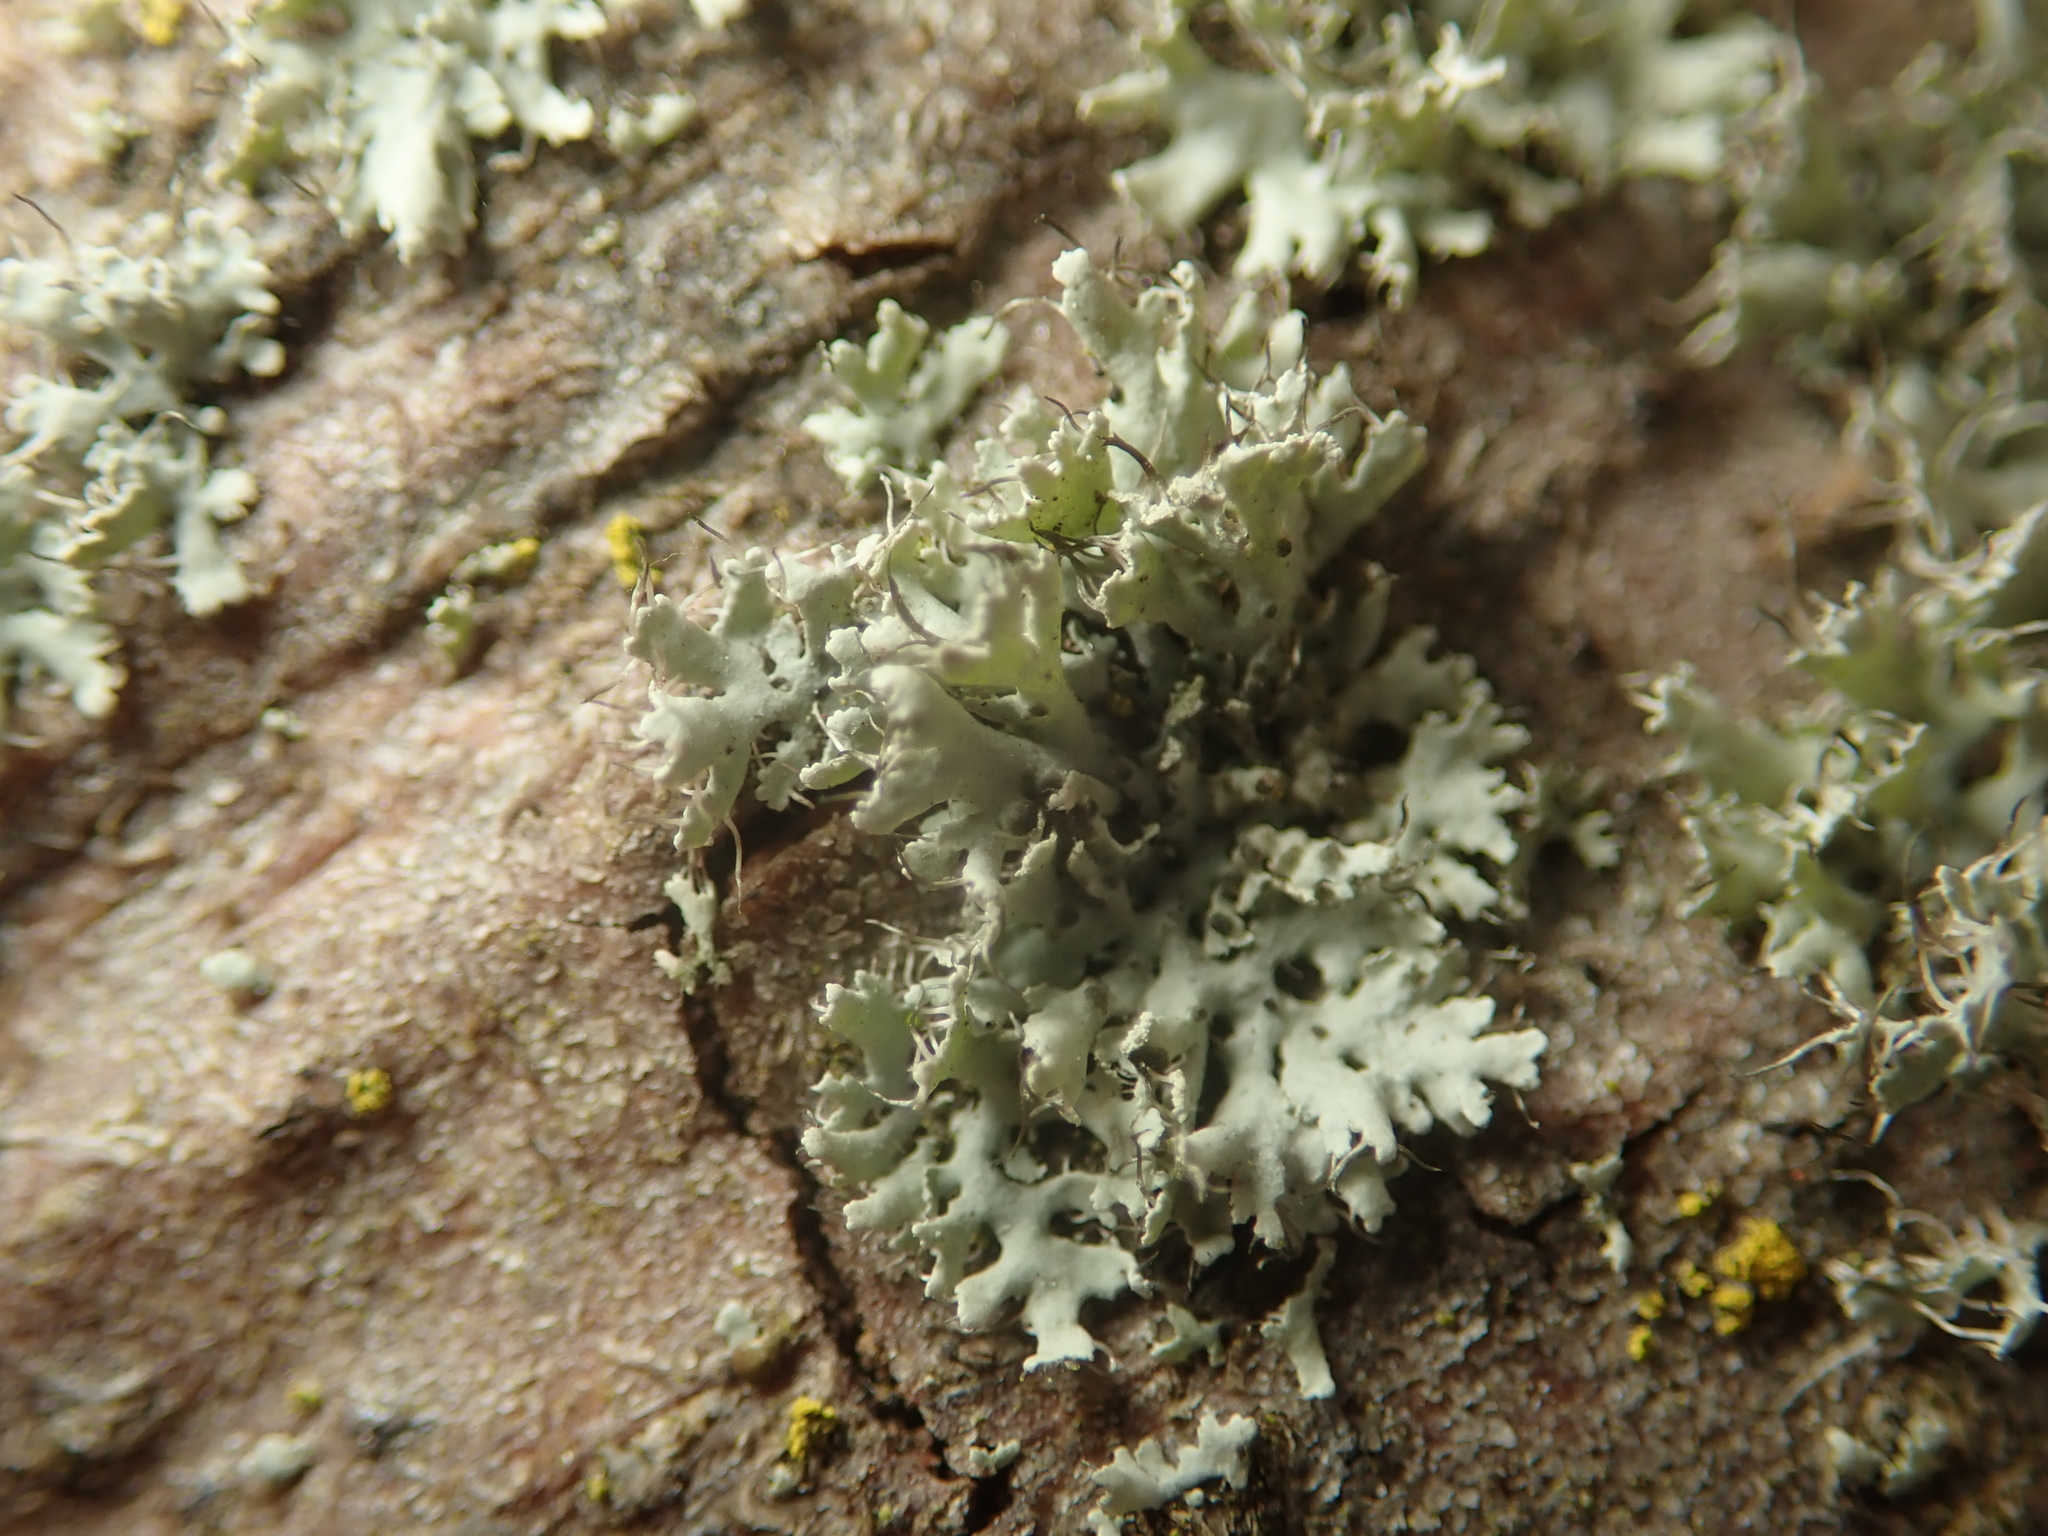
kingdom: Fungi
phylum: Ascomycota
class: Lecanoromycetes
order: Caliciales
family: Physciaceae
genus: Physcia
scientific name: Physcia adscendens
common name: Hooded rosette lichen
